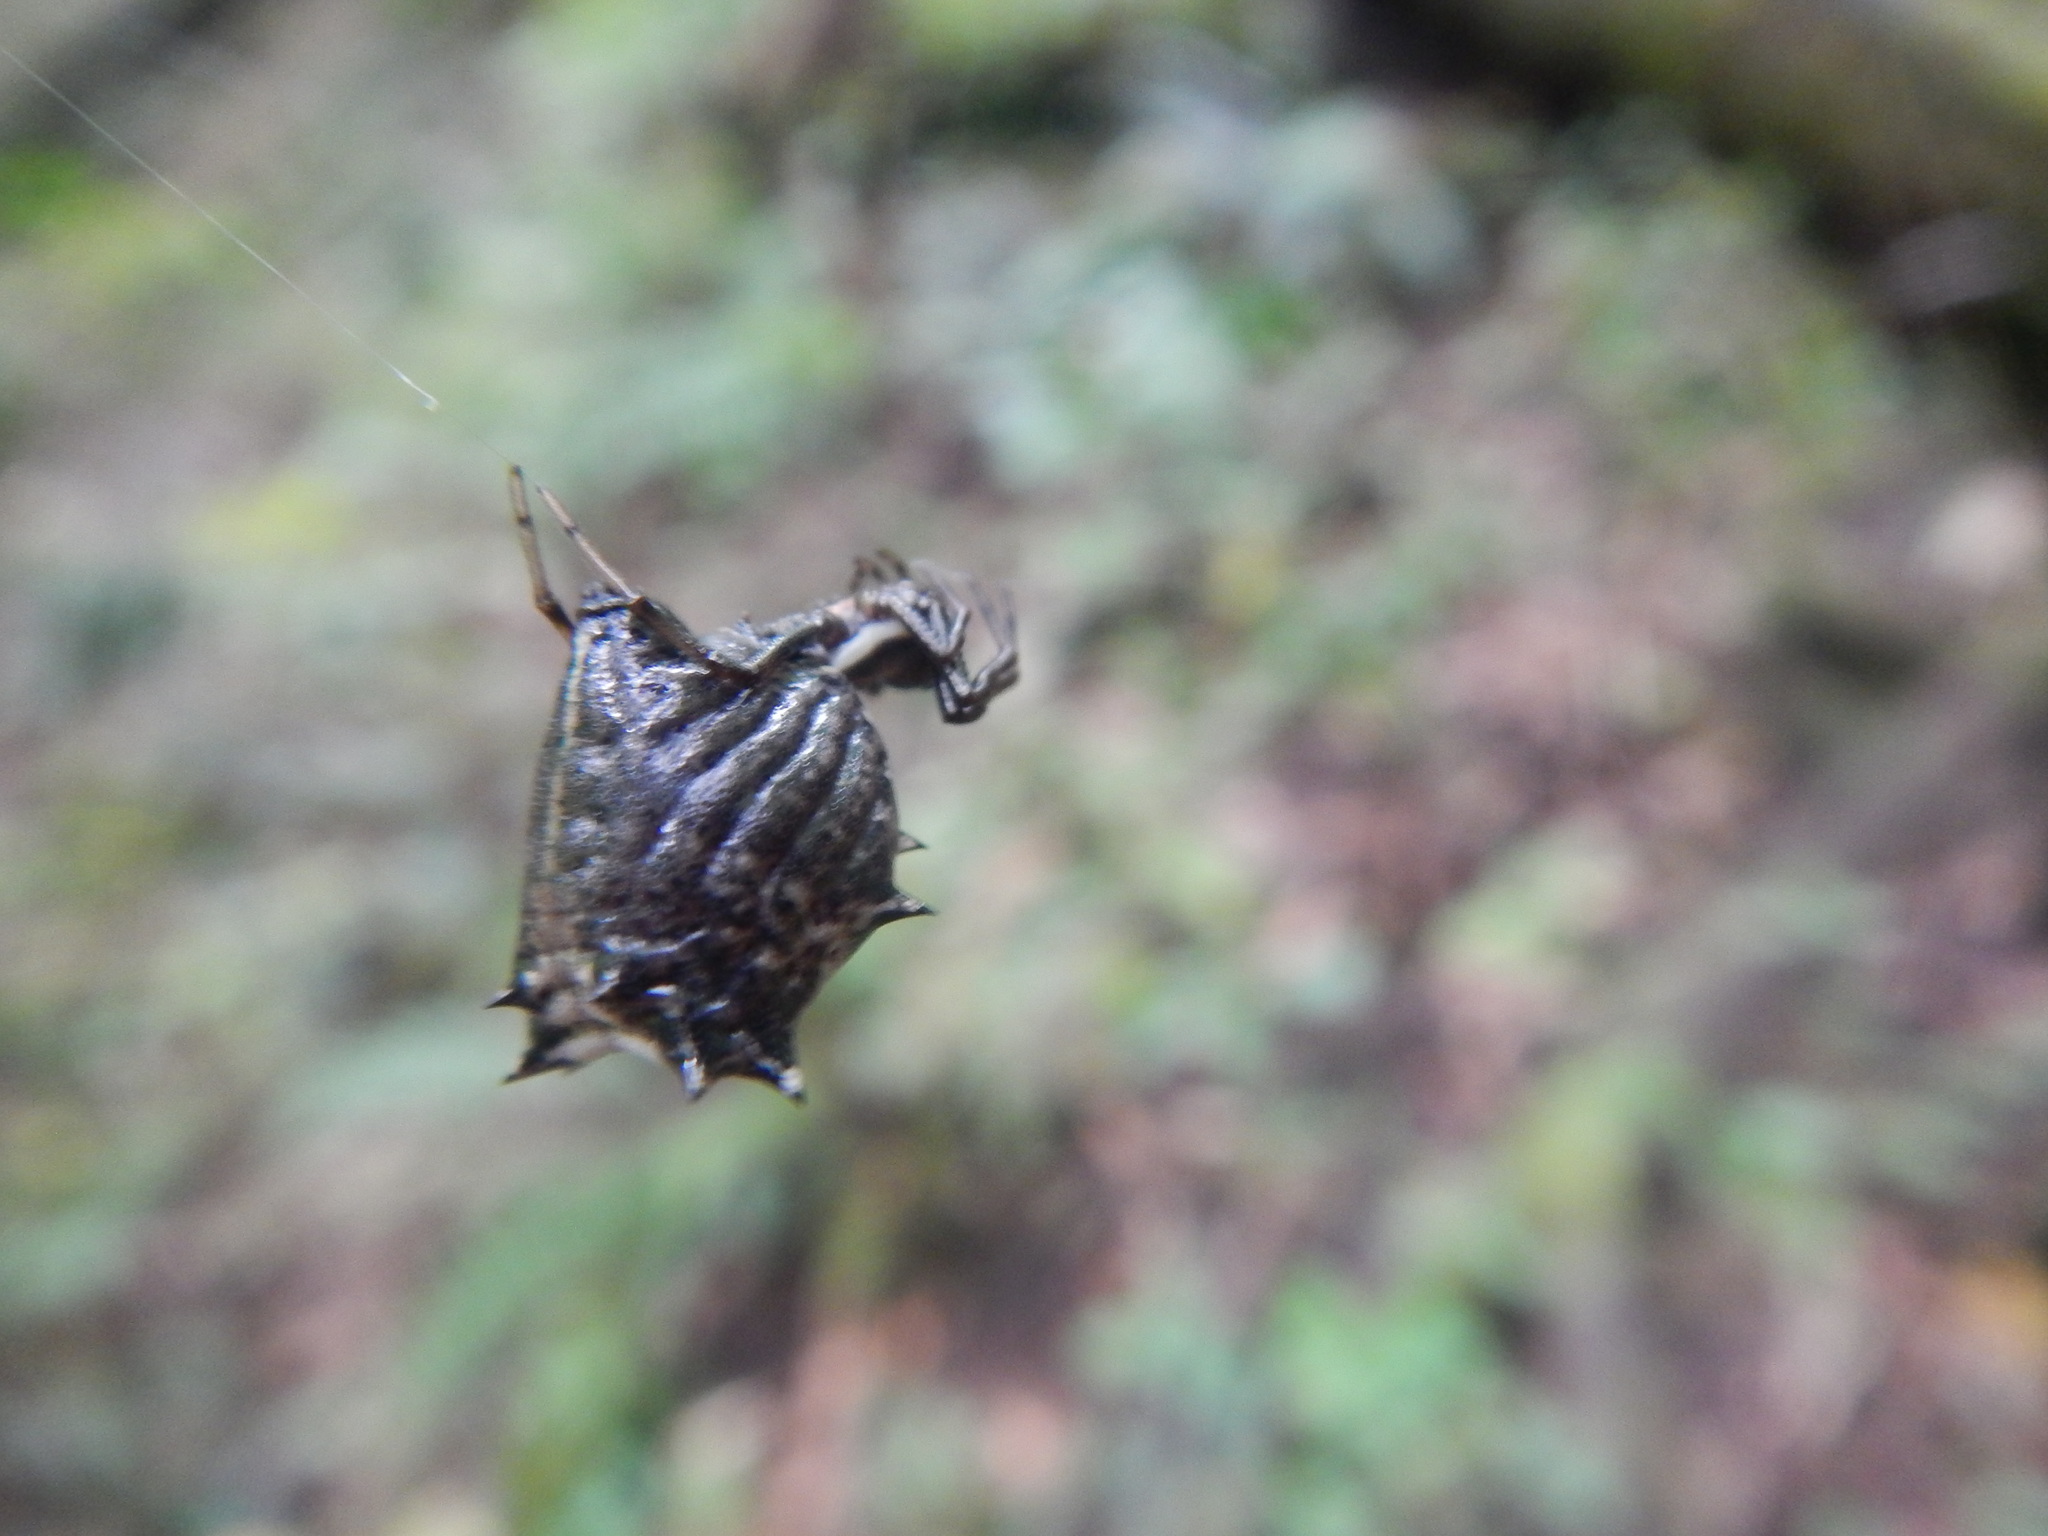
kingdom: Animalia
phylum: Arthropoda
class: Arachnida
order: Araneae
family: Araneidae
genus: Micrathena
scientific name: Micrathena gracilis
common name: Orb weavers
